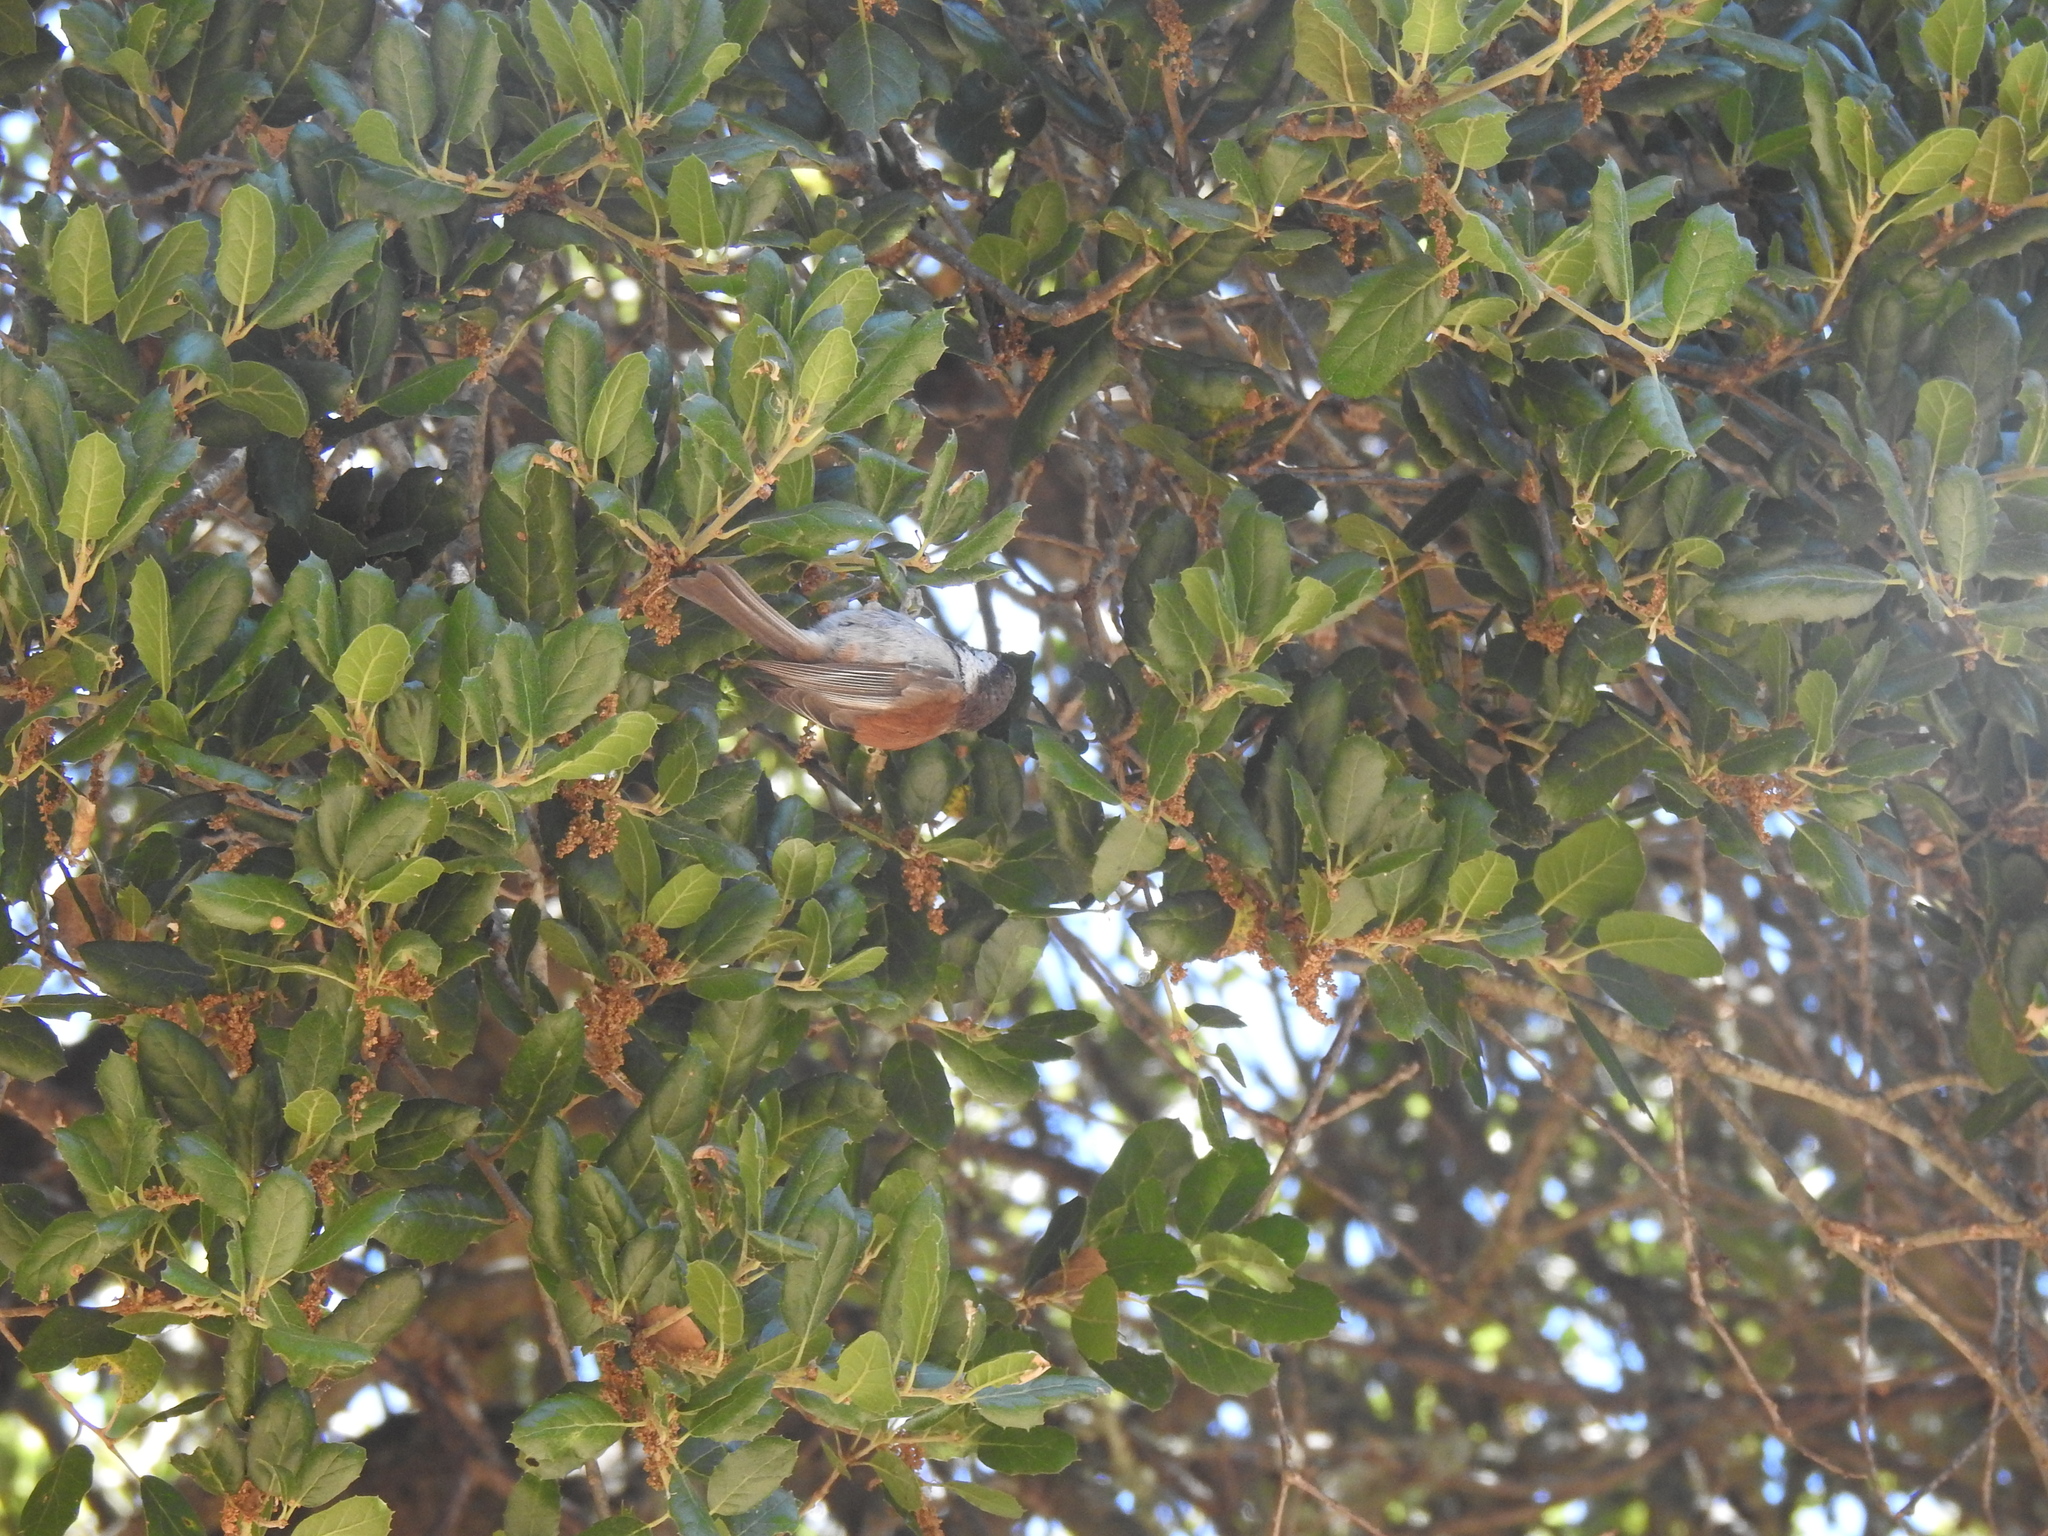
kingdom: Animalia
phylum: Chordata
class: Aves
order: Passeriformes
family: Paridae
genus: Poecile
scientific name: Poecile rufescens
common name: Chestnut-backed chickadee
